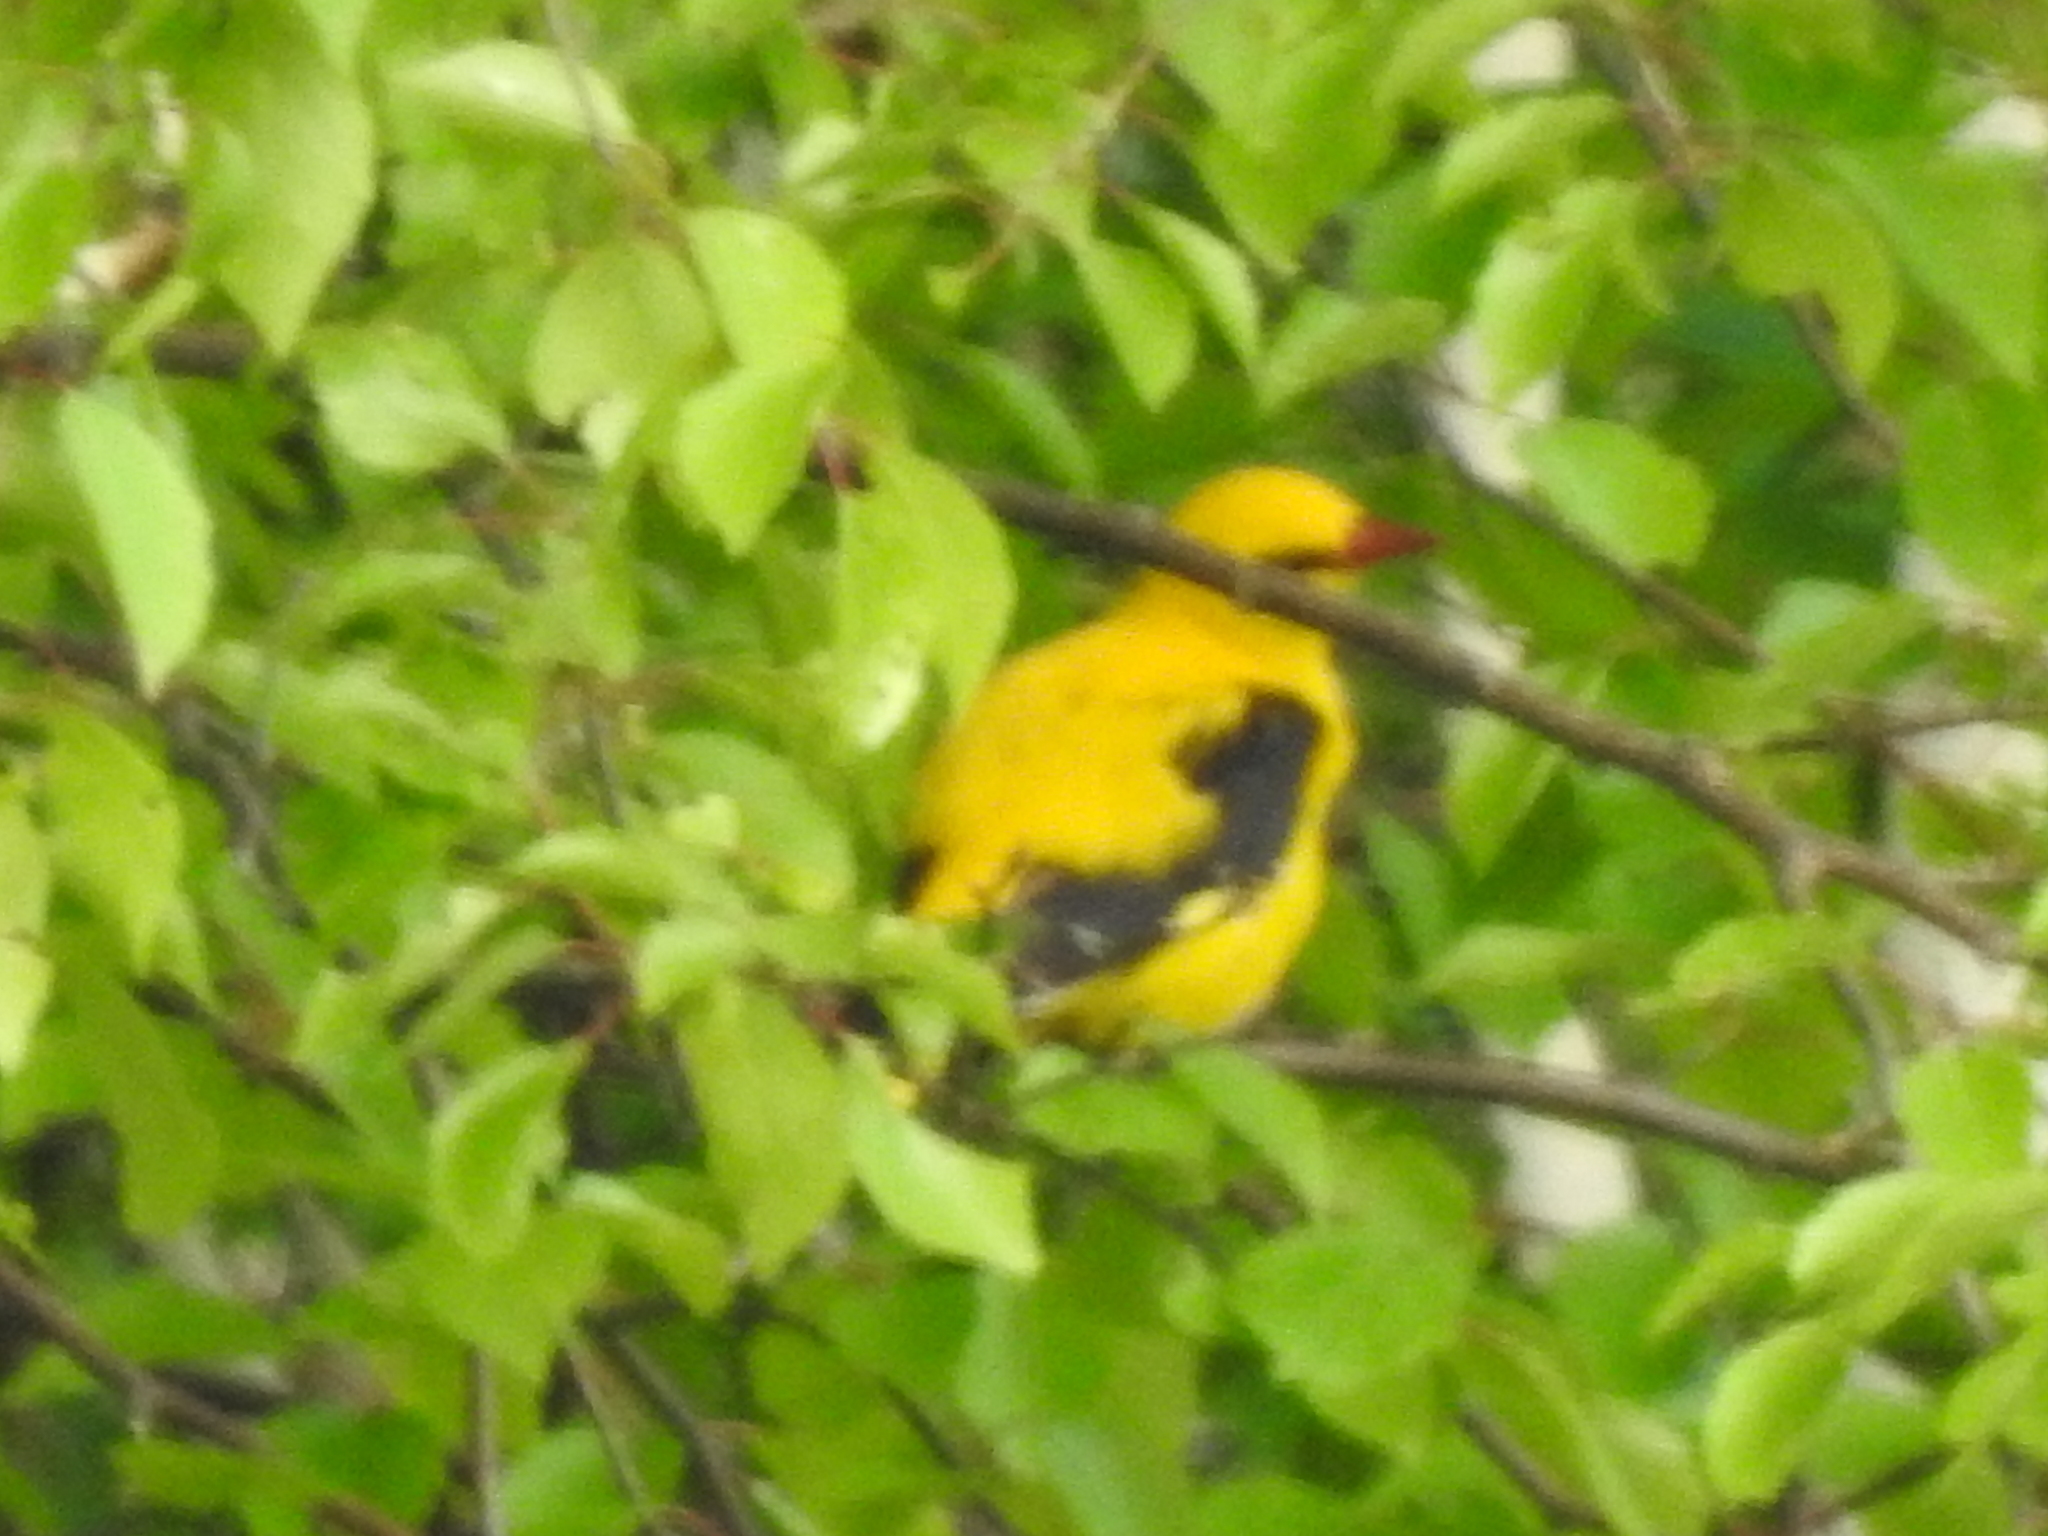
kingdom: Animalia
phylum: Chordata
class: Aves
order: Passeriformes
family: Oriolidae
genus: Oriolus
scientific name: Oriolus oriolus
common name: Eurasian golden oriole
